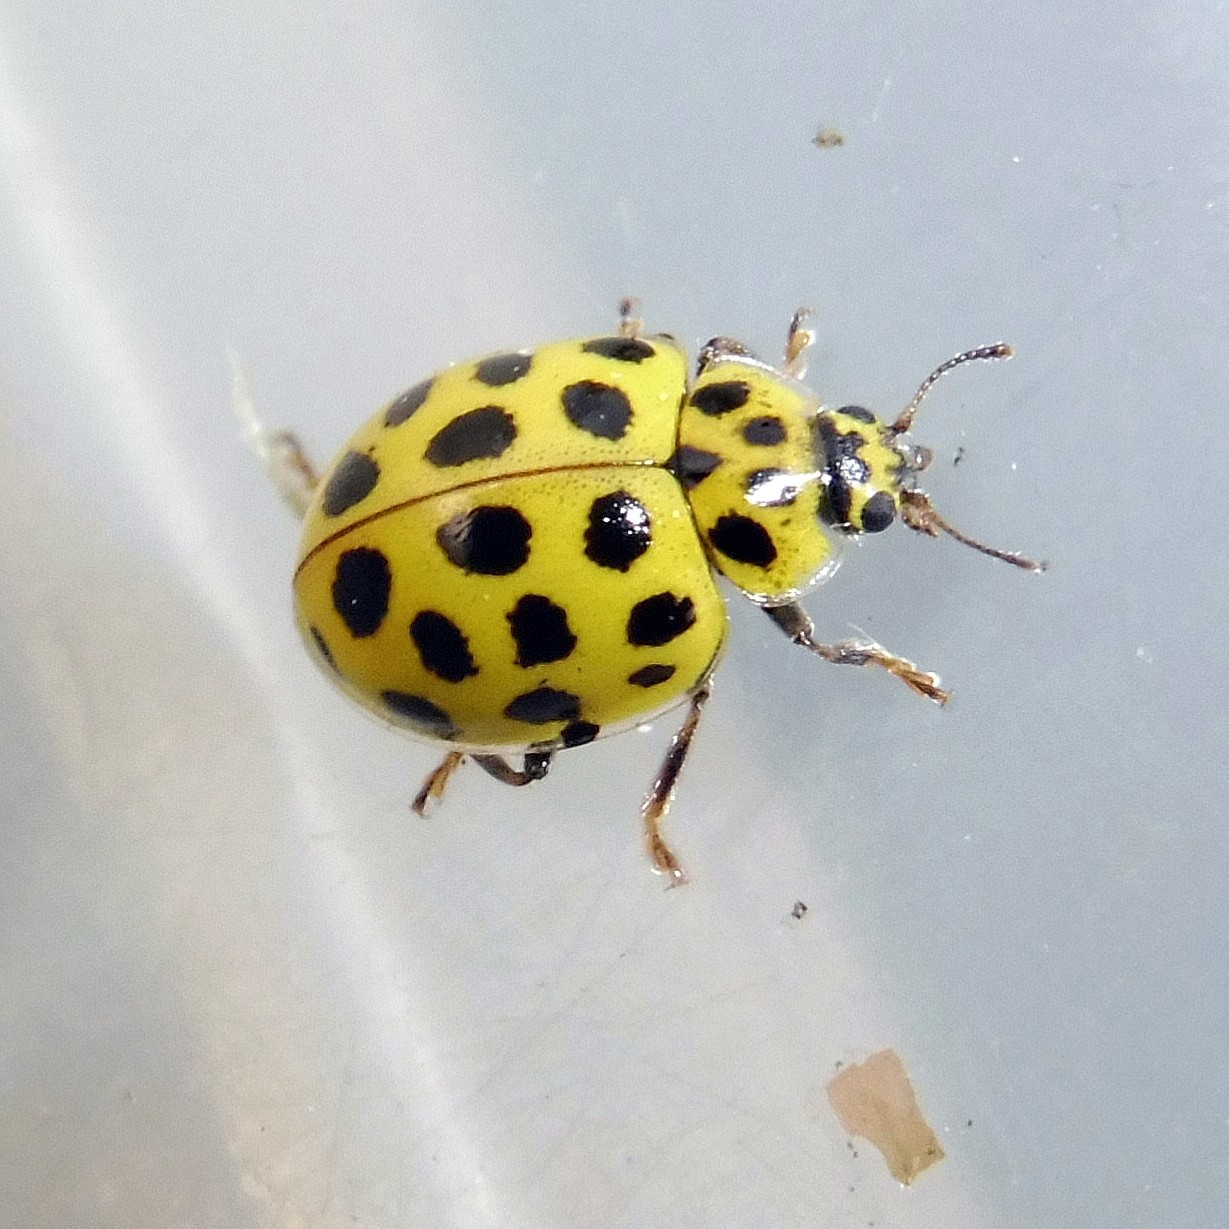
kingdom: Animalia
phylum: Arthropoda
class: Insecta
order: Coleoptera
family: Coccinellidae
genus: Psyllobora
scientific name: Psyllobora vigintiduopunctata
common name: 22-spot ladybird
